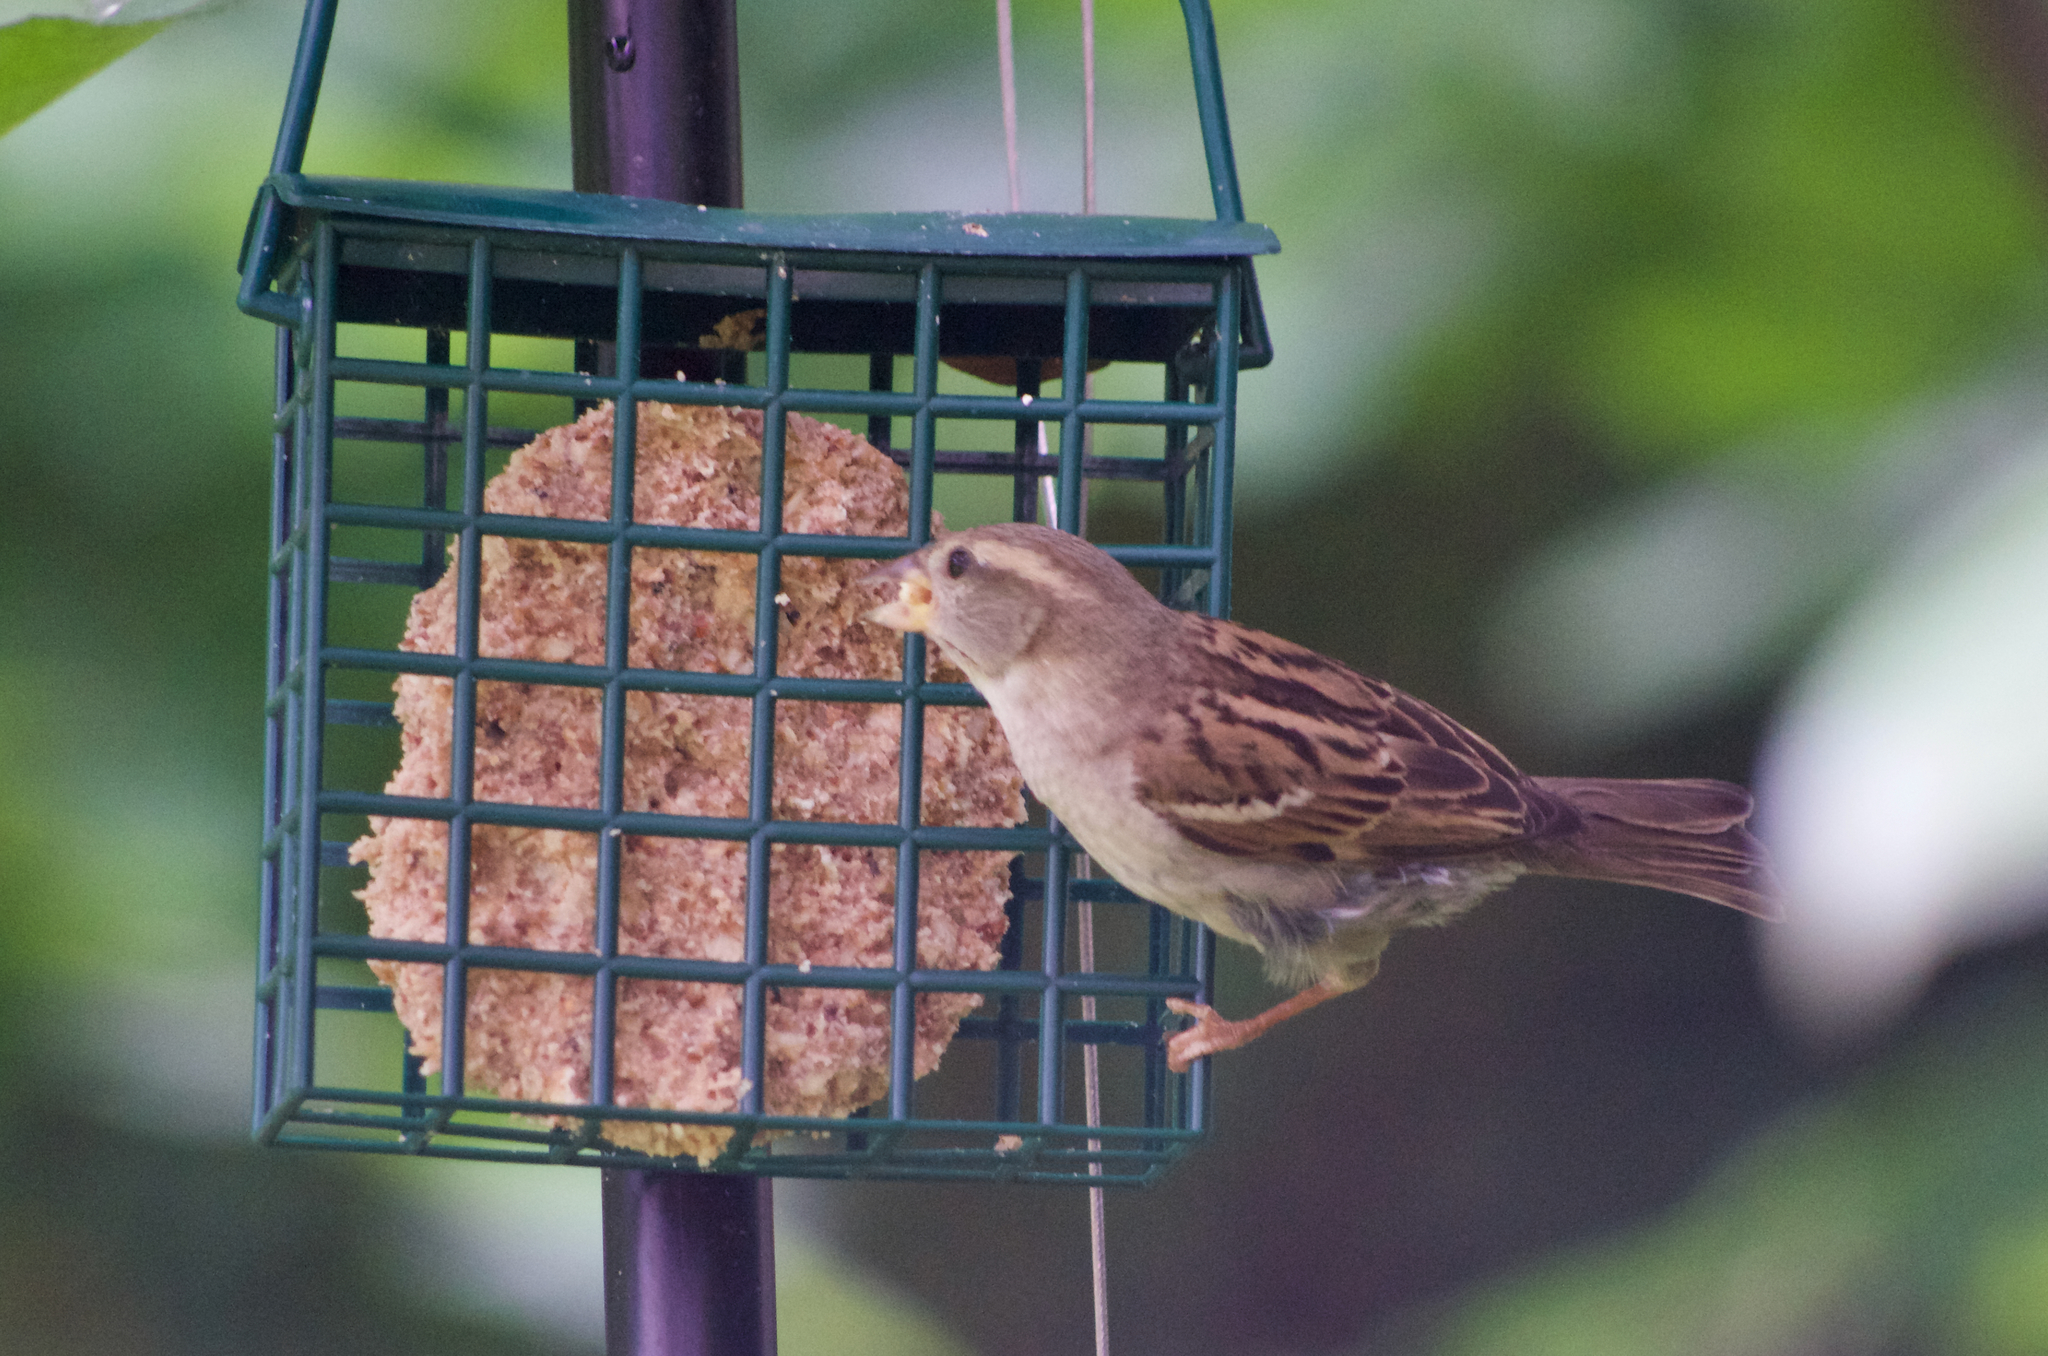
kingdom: Animalia
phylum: Chordata
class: Aves
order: Passeriformes
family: Passeridae
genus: Passer
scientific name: Passer domesticus
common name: House sparrow
